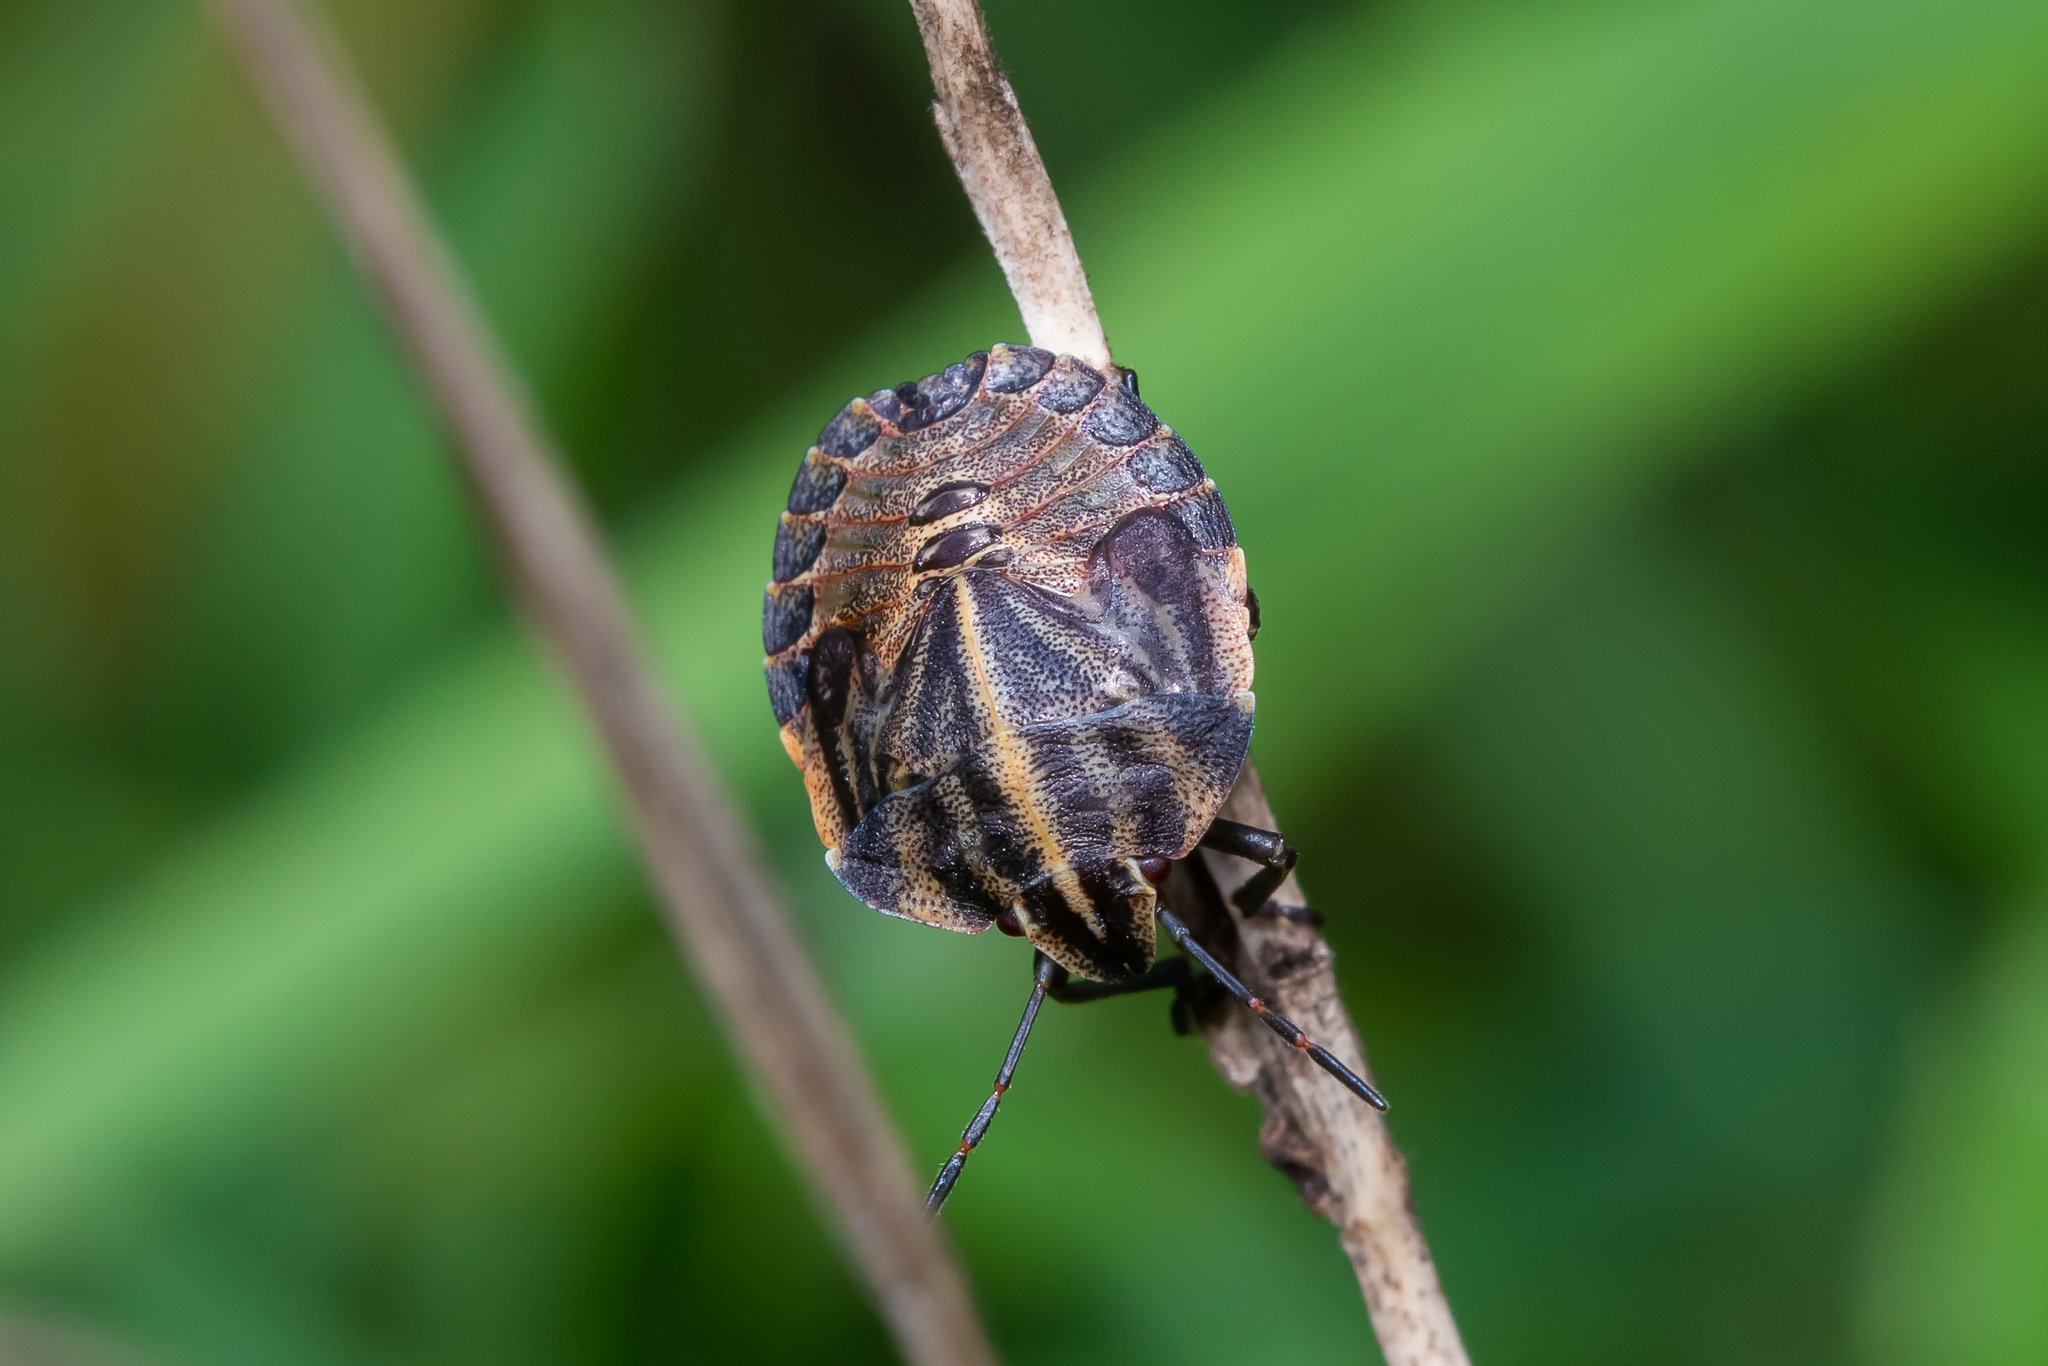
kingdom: Animalia
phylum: Arthropoda
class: Insecta
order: Hemiptera
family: Pentatomidae
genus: Graphosoma
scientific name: Graphosoma italicum
